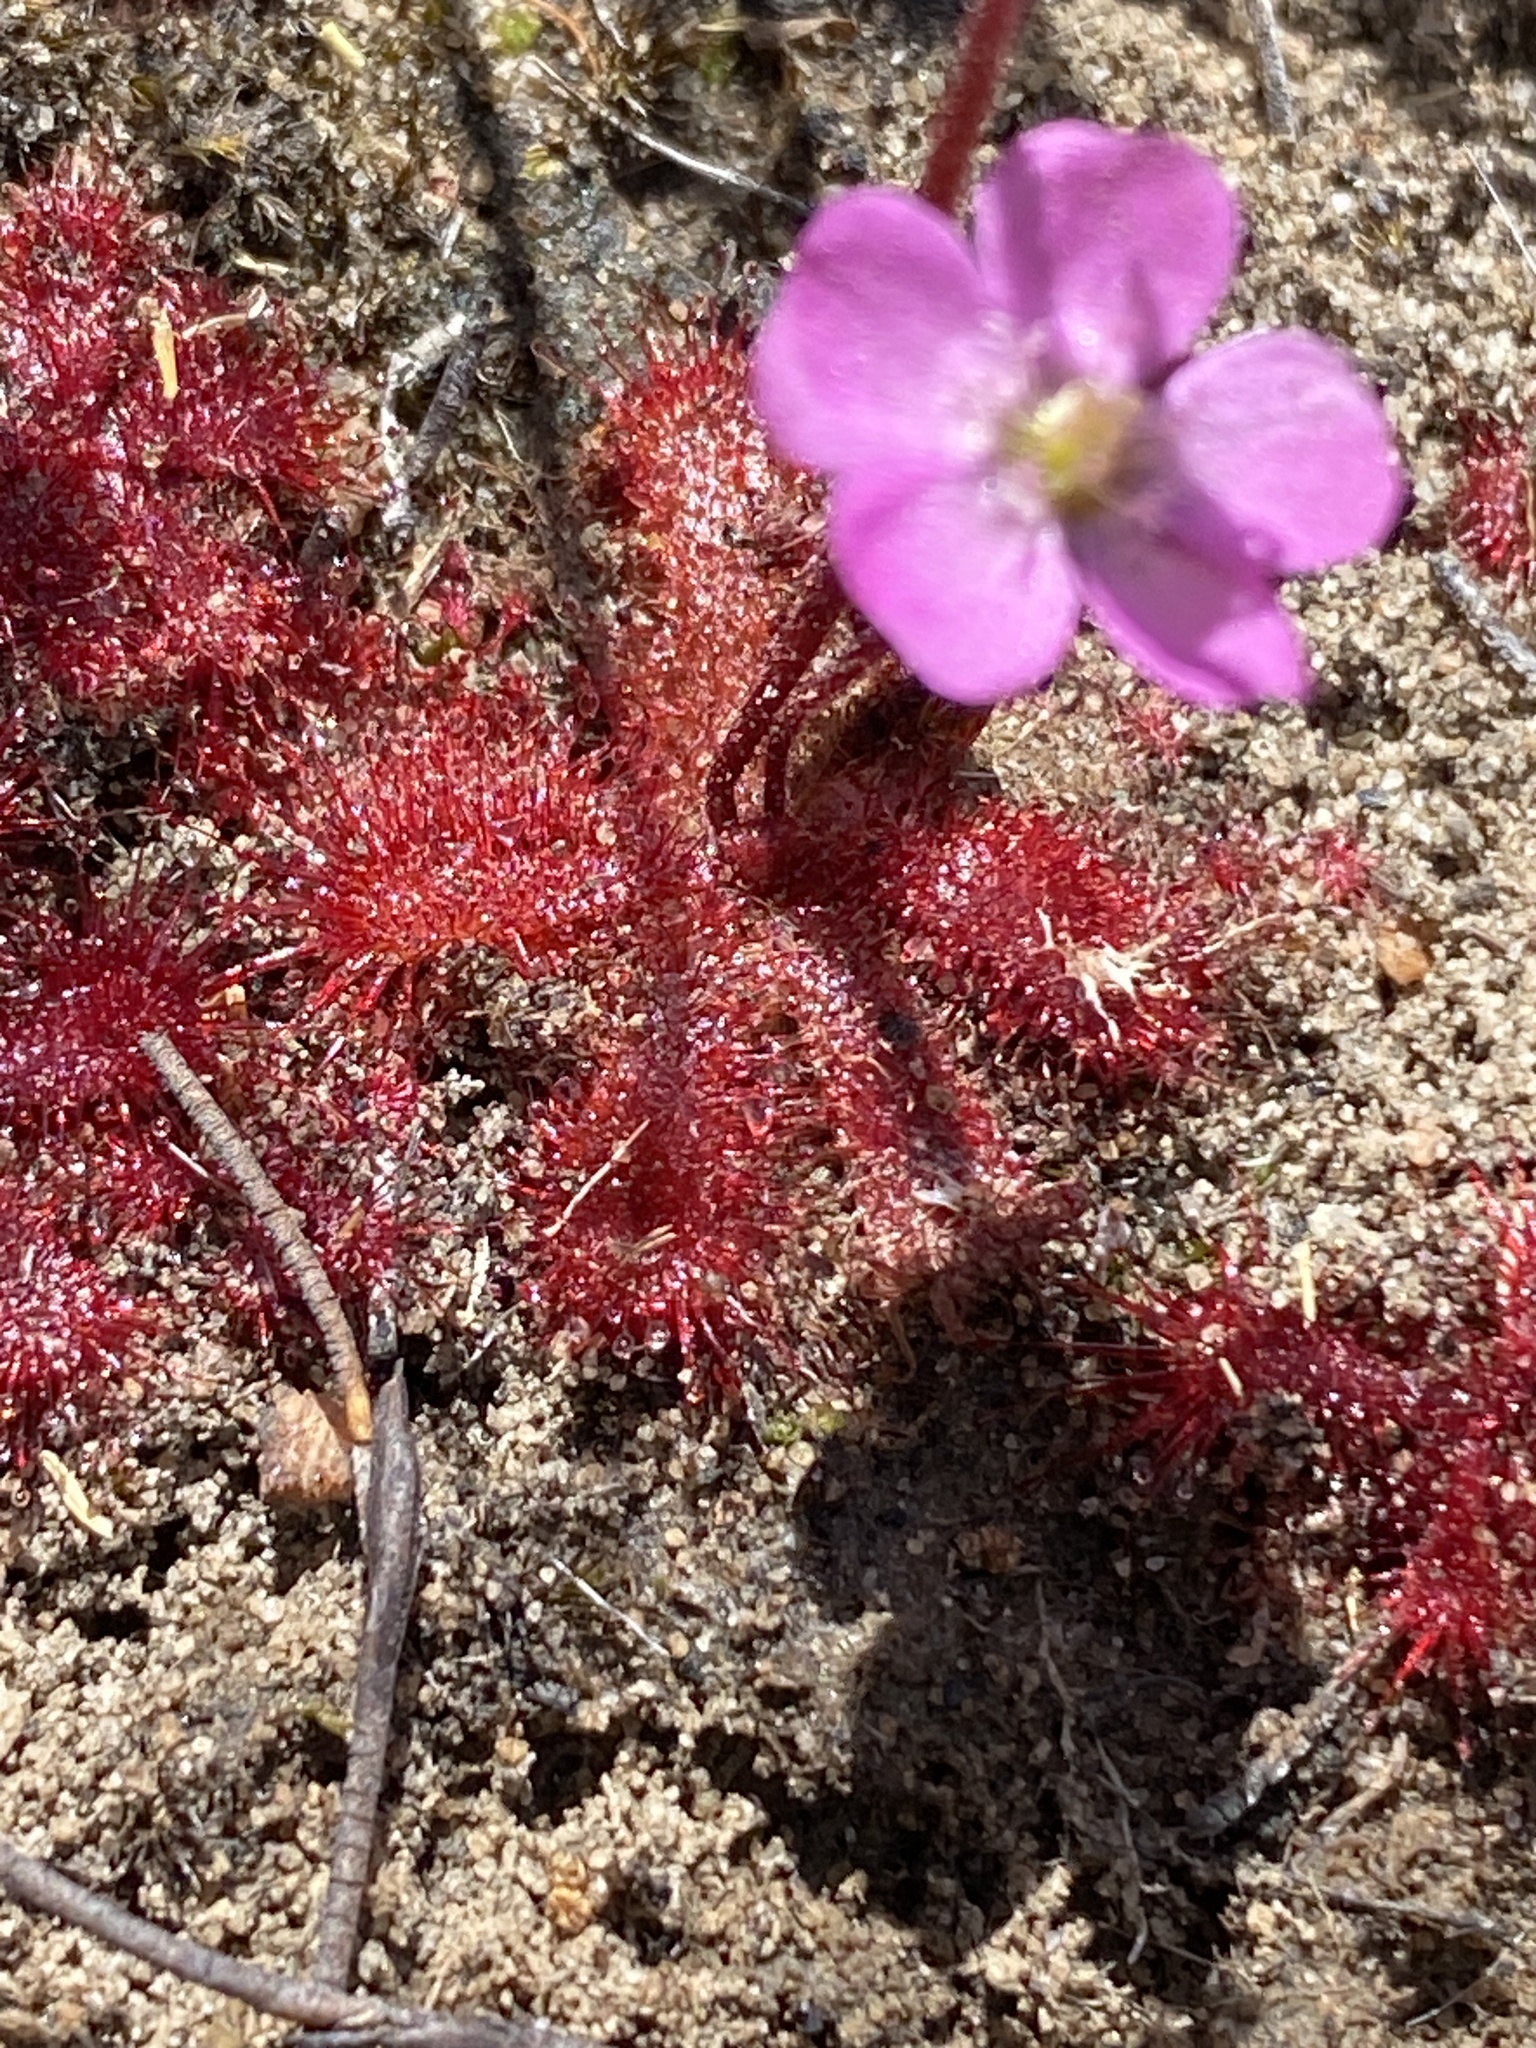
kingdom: Plantae
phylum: Tracheophyta
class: Magnoliopsida
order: Caryophyllales
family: Droseraceae
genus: Drosera
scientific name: Drosera trinervia
